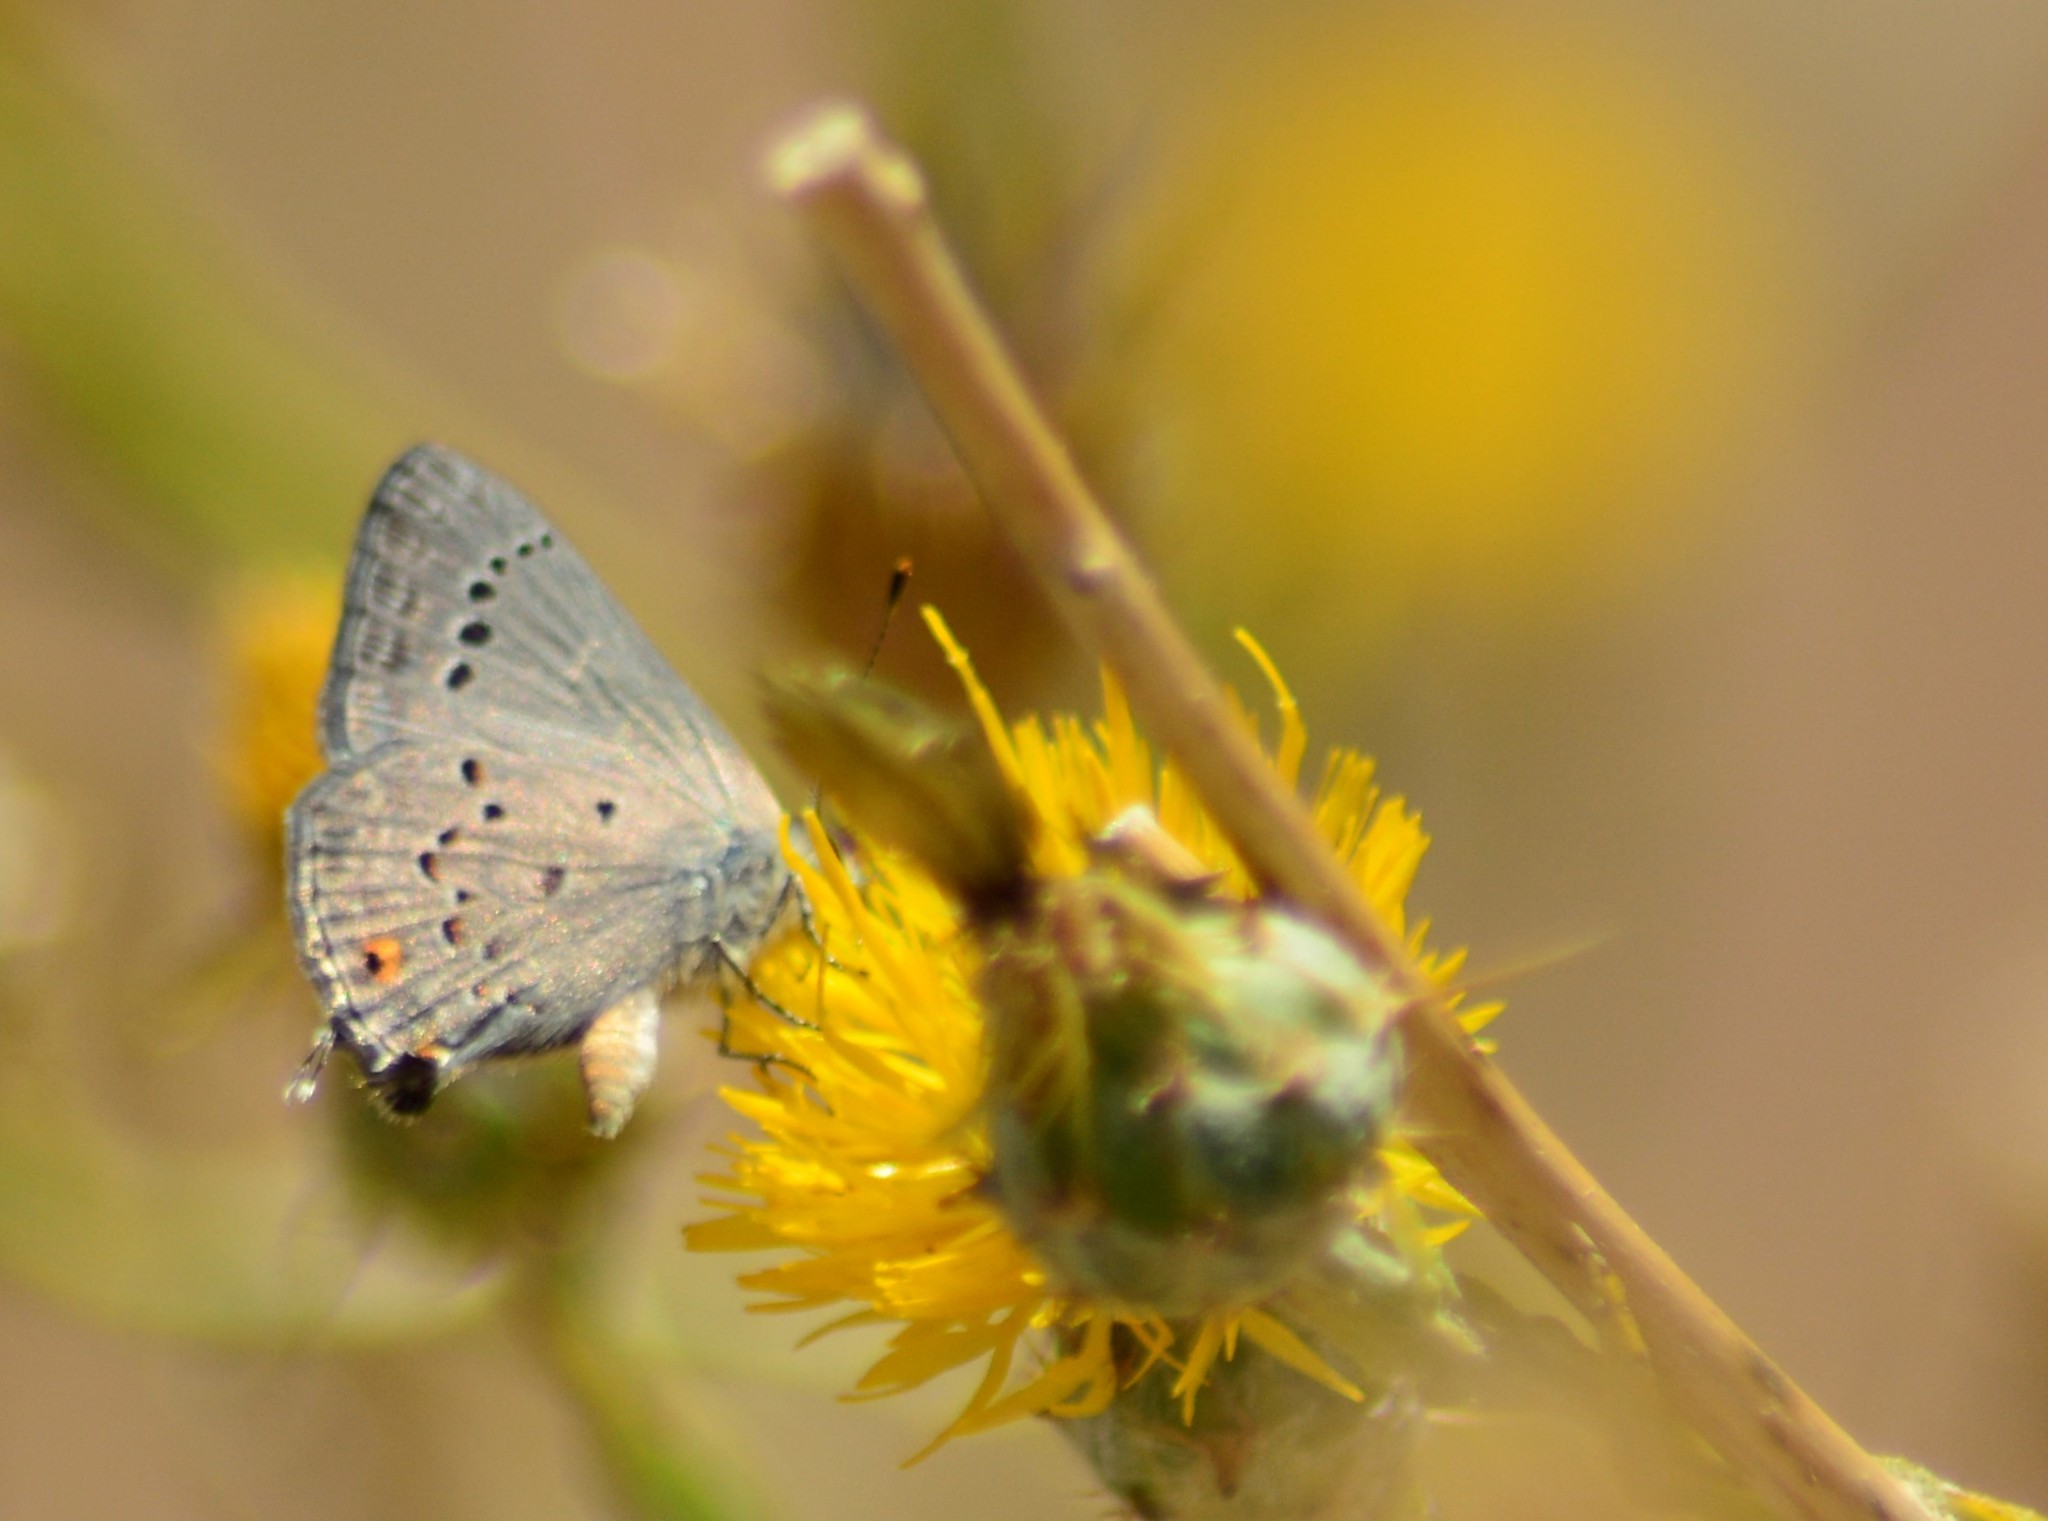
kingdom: Animalia
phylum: Arthropoda
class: Insecta
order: Lepidoptera
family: Lycaenidae
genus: Strymon
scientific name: Strymon eurytulus
